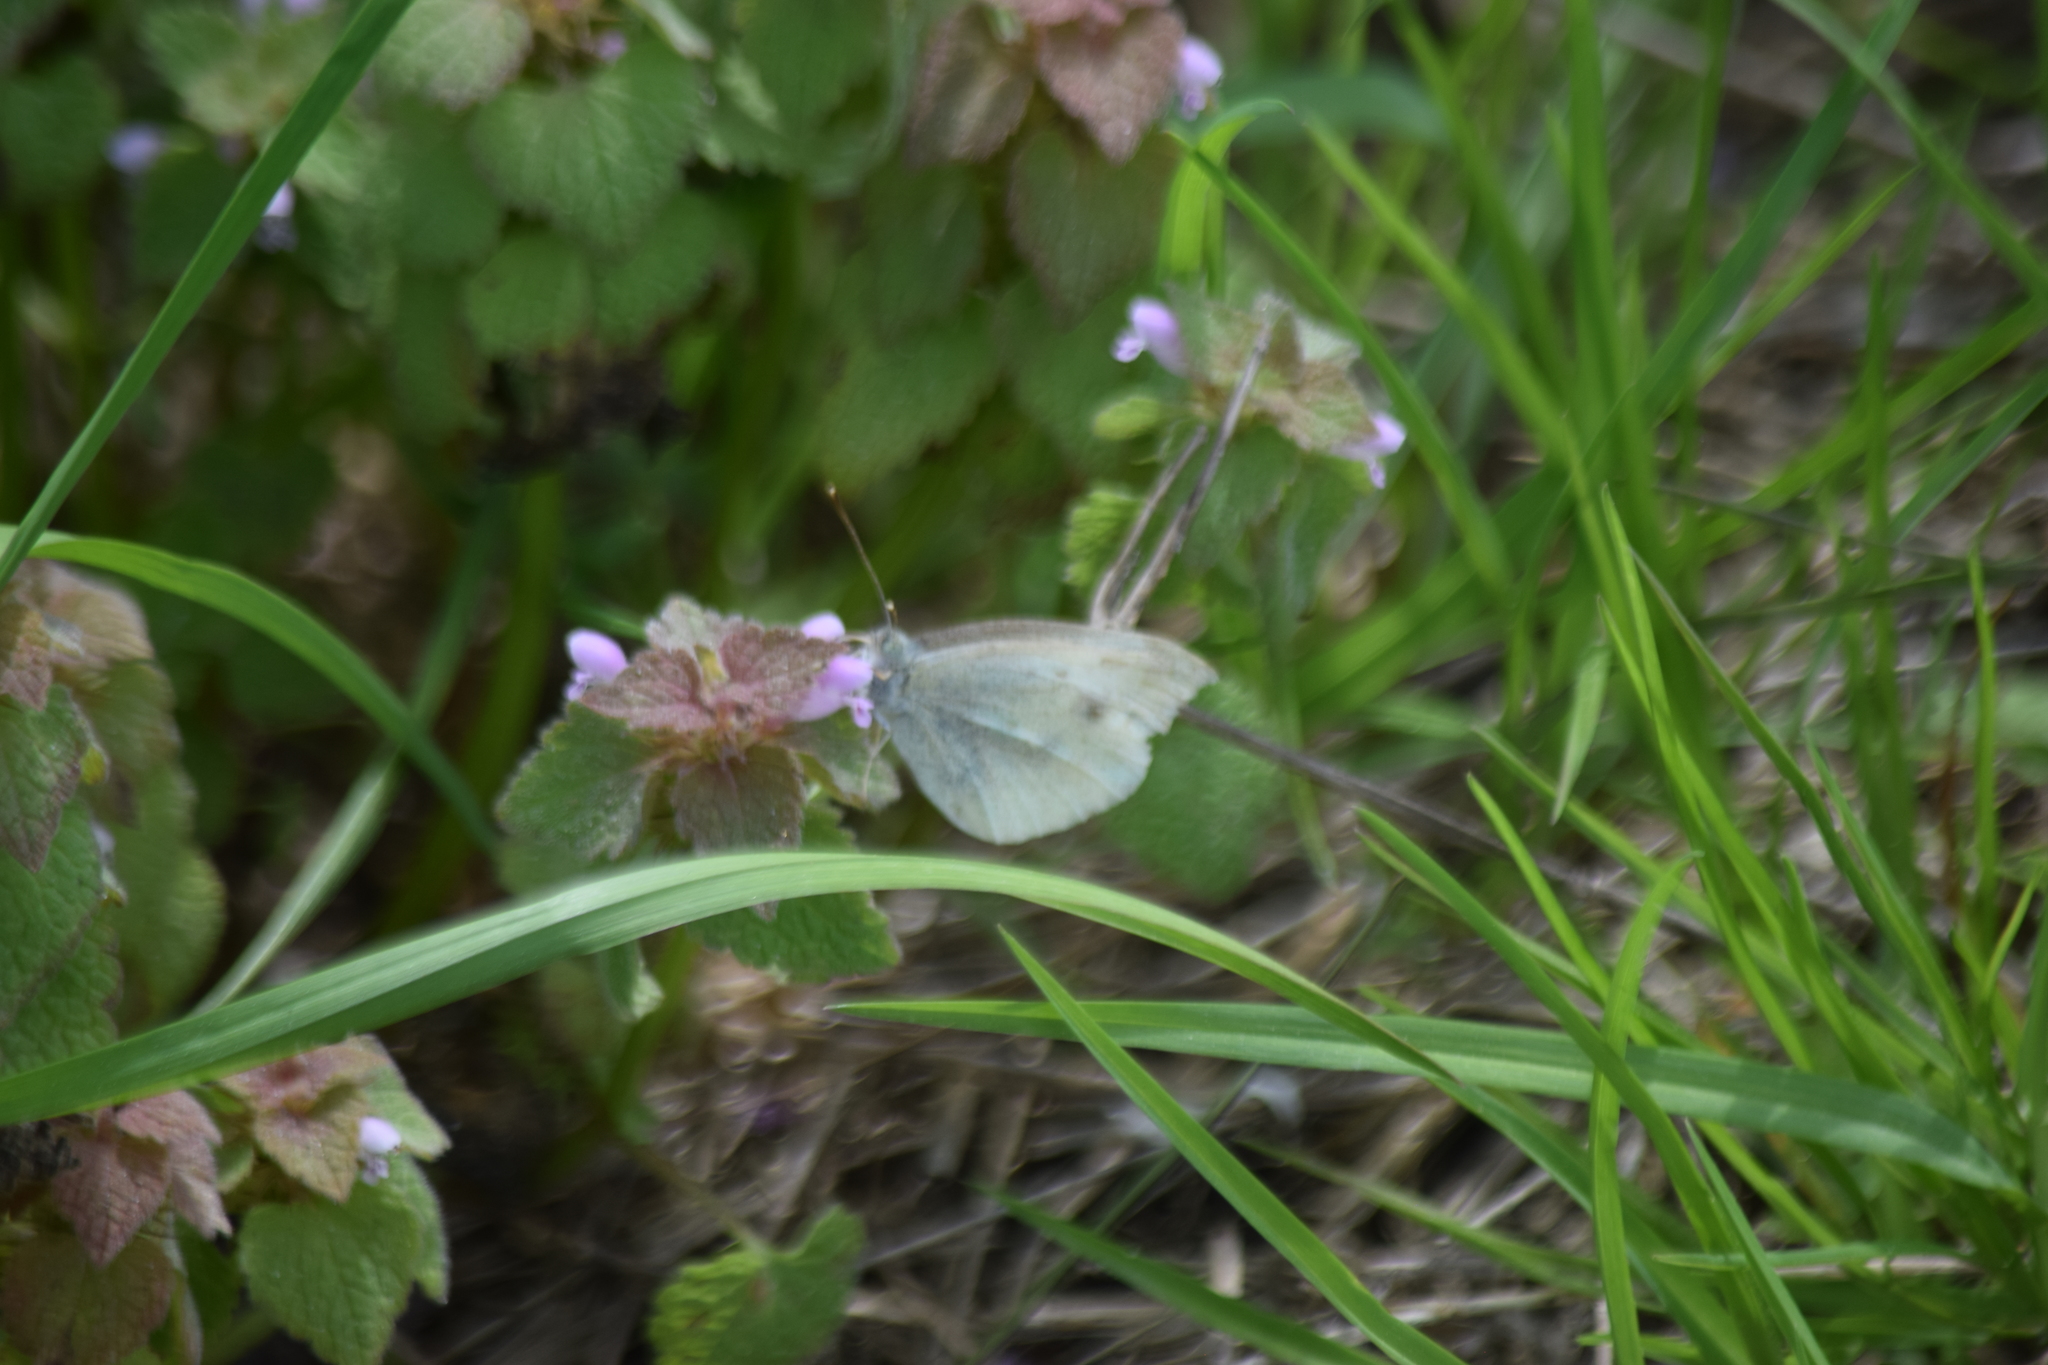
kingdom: Animalia
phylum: Arthropoda
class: Insecta
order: Lepidoptera
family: Pieridae
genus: Pieris
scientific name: Pieris rapae
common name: Small white
